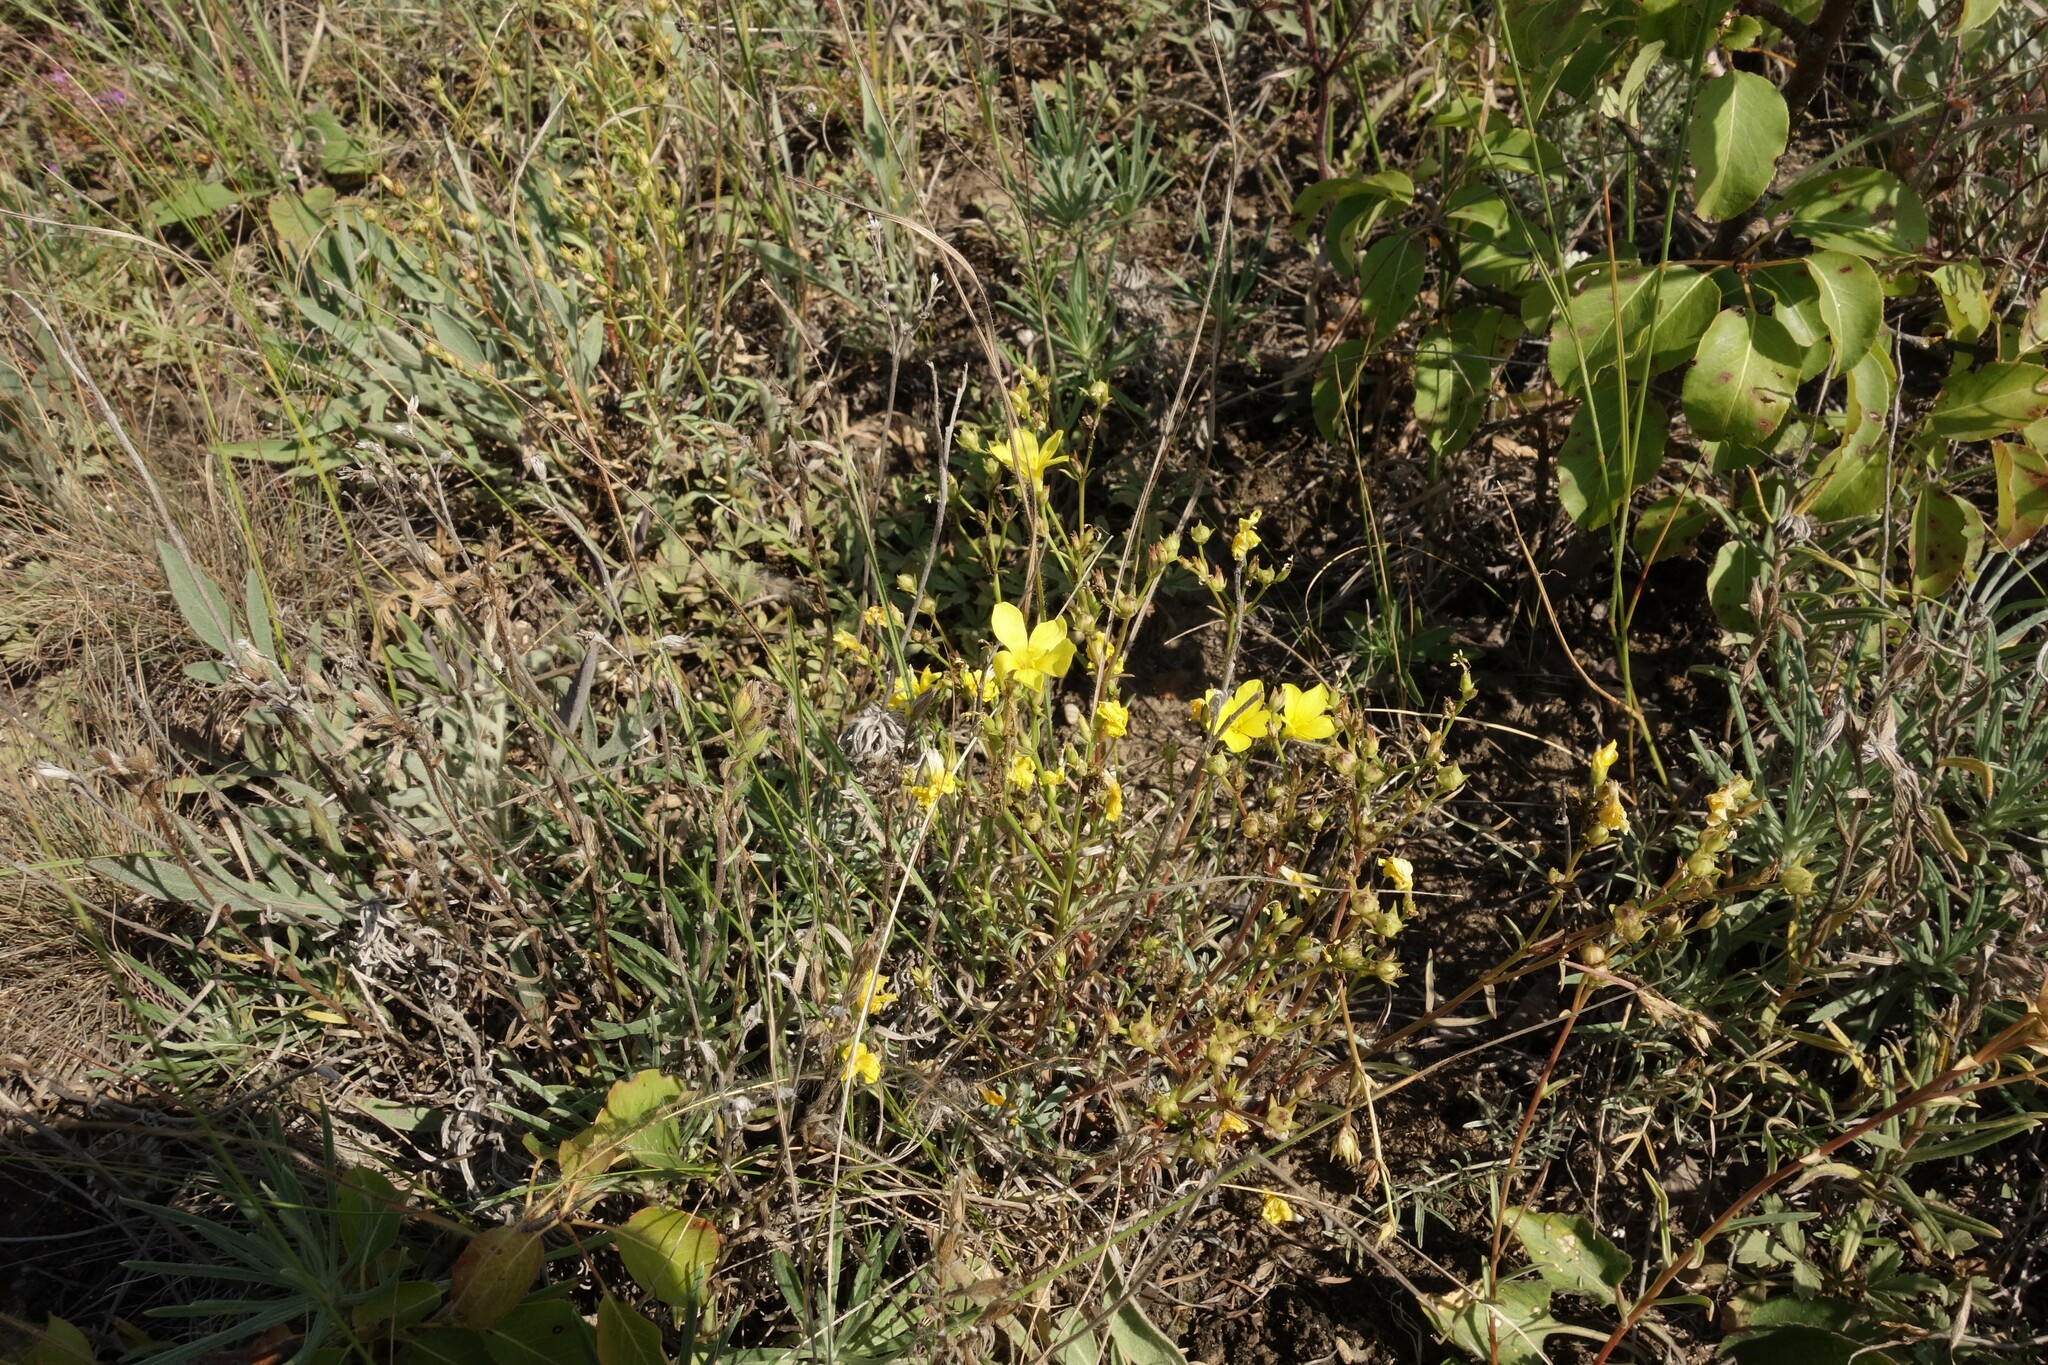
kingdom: Plantae
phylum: Tracheophyta
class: Magnoliopsida
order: Malpighiales
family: Linaceae
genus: Linum
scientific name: Linum ucranicum
